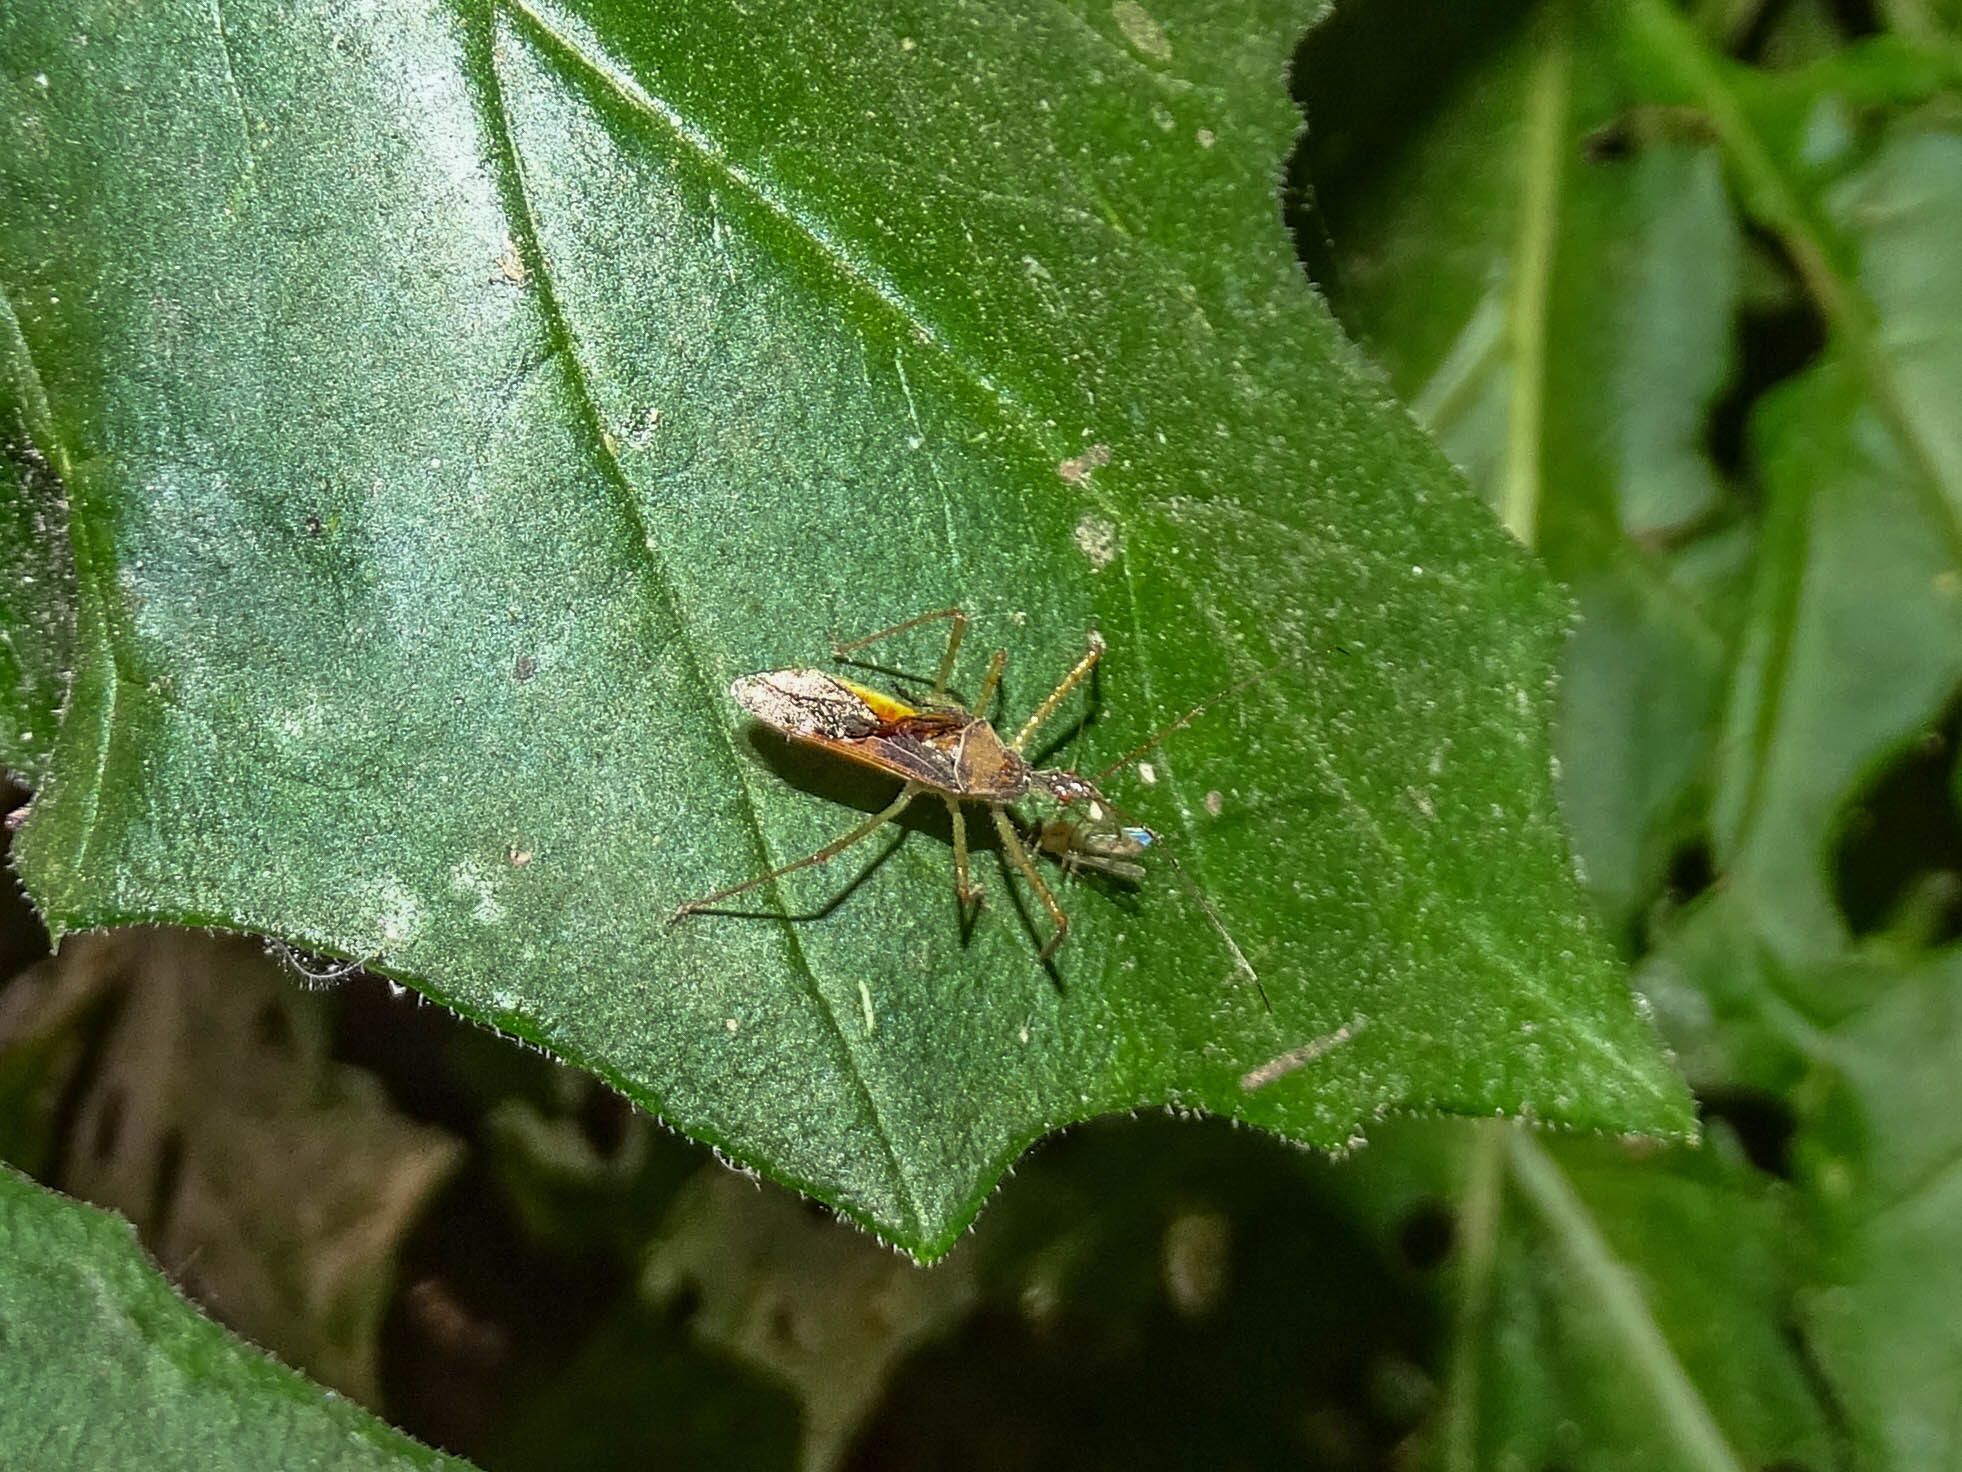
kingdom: Animalia
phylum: Arthropoda
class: Insecta
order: Hemiptera
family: Reduviidae
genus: Zelus
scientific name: Zelus renardii
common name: Assassin bug
